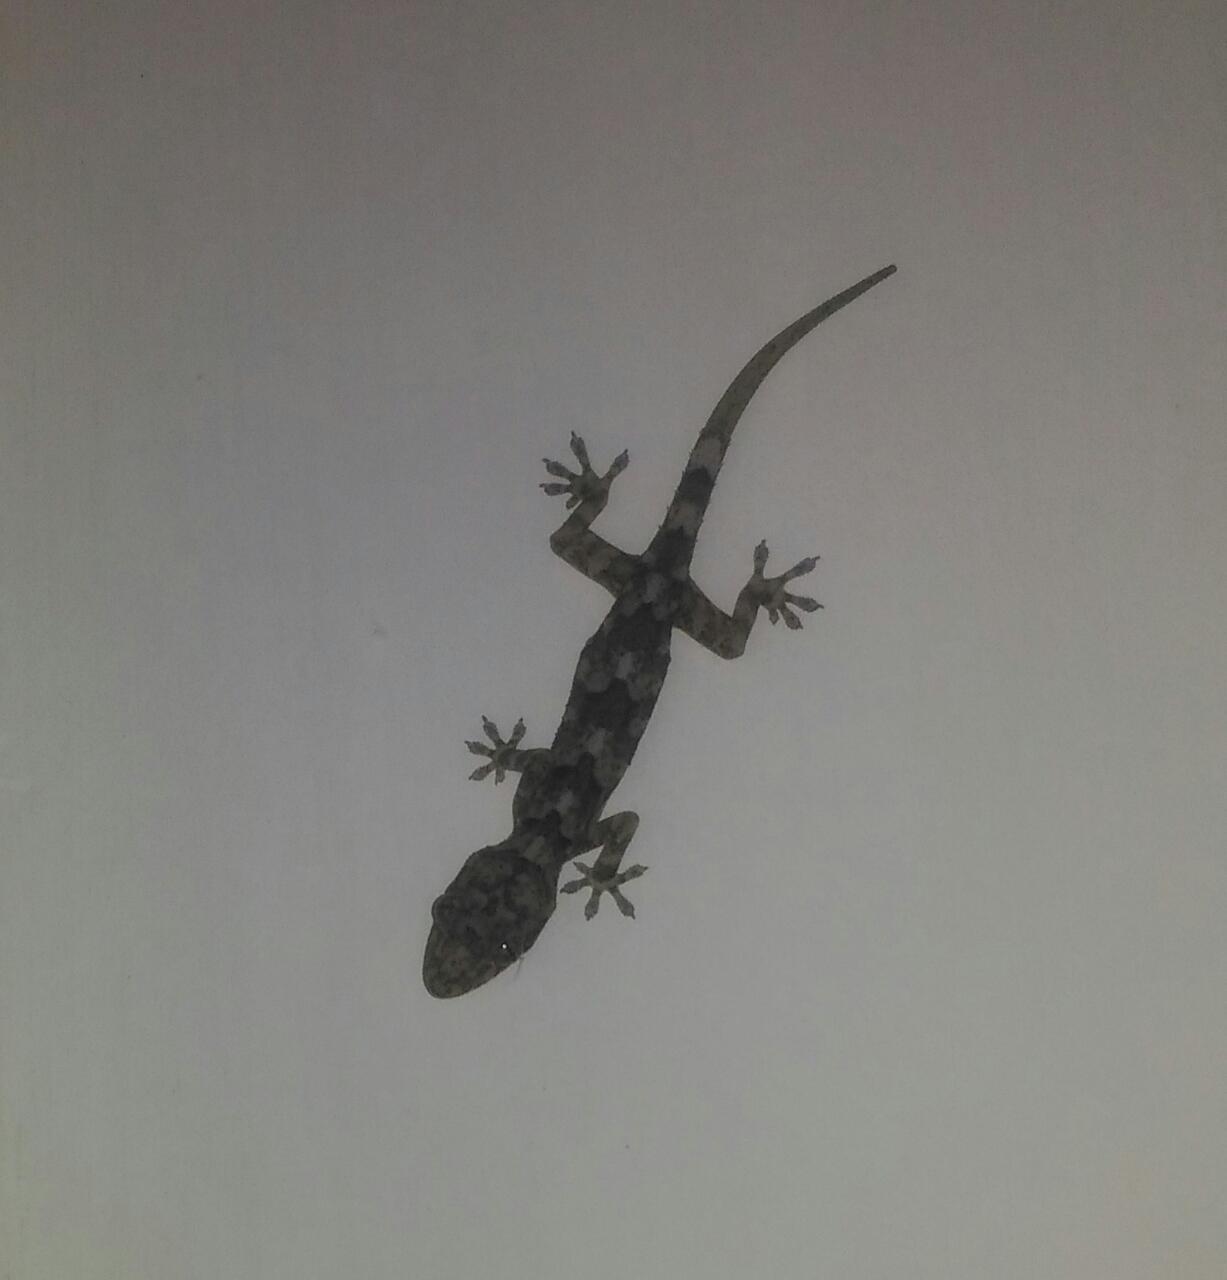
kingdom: Animalia
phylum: Chordata
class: Squamata
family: Gekkonidae
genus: Hemidactylus
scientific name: Hemidactylus mabouia
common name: House gecko
